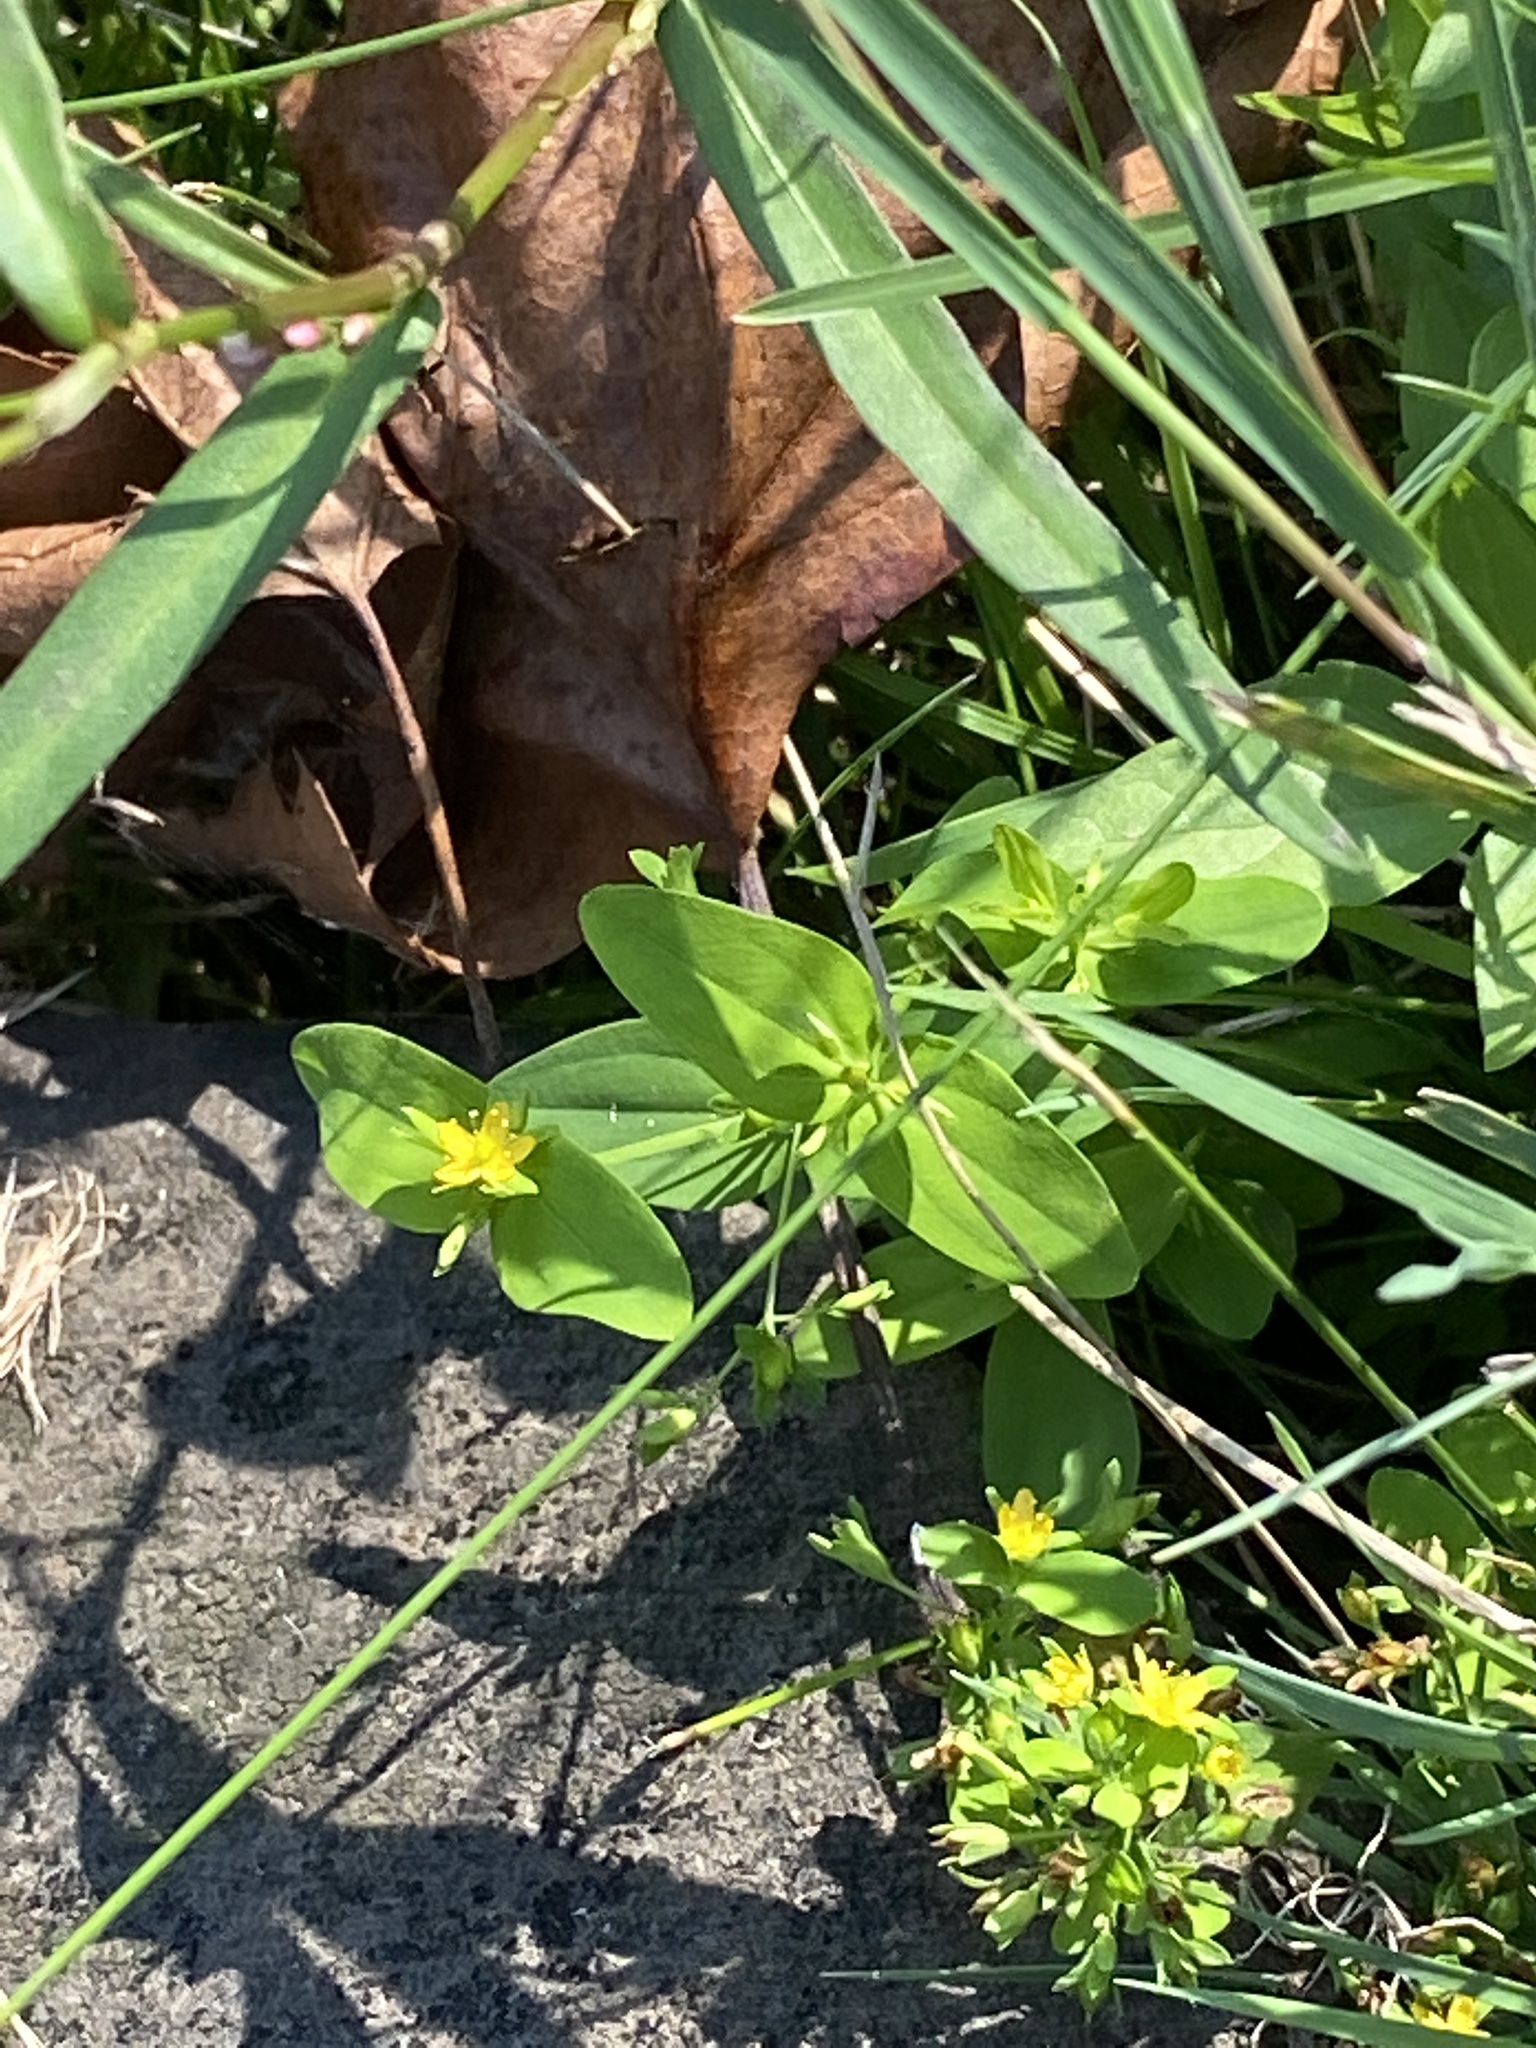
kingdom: Plantae
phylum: Tracheophyta
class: Magnoliopsida
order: Malpighiales
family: Hypericaceae
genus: Hypericum
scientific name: Hypericum mutilum
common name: Dwarf st. john's-wort
